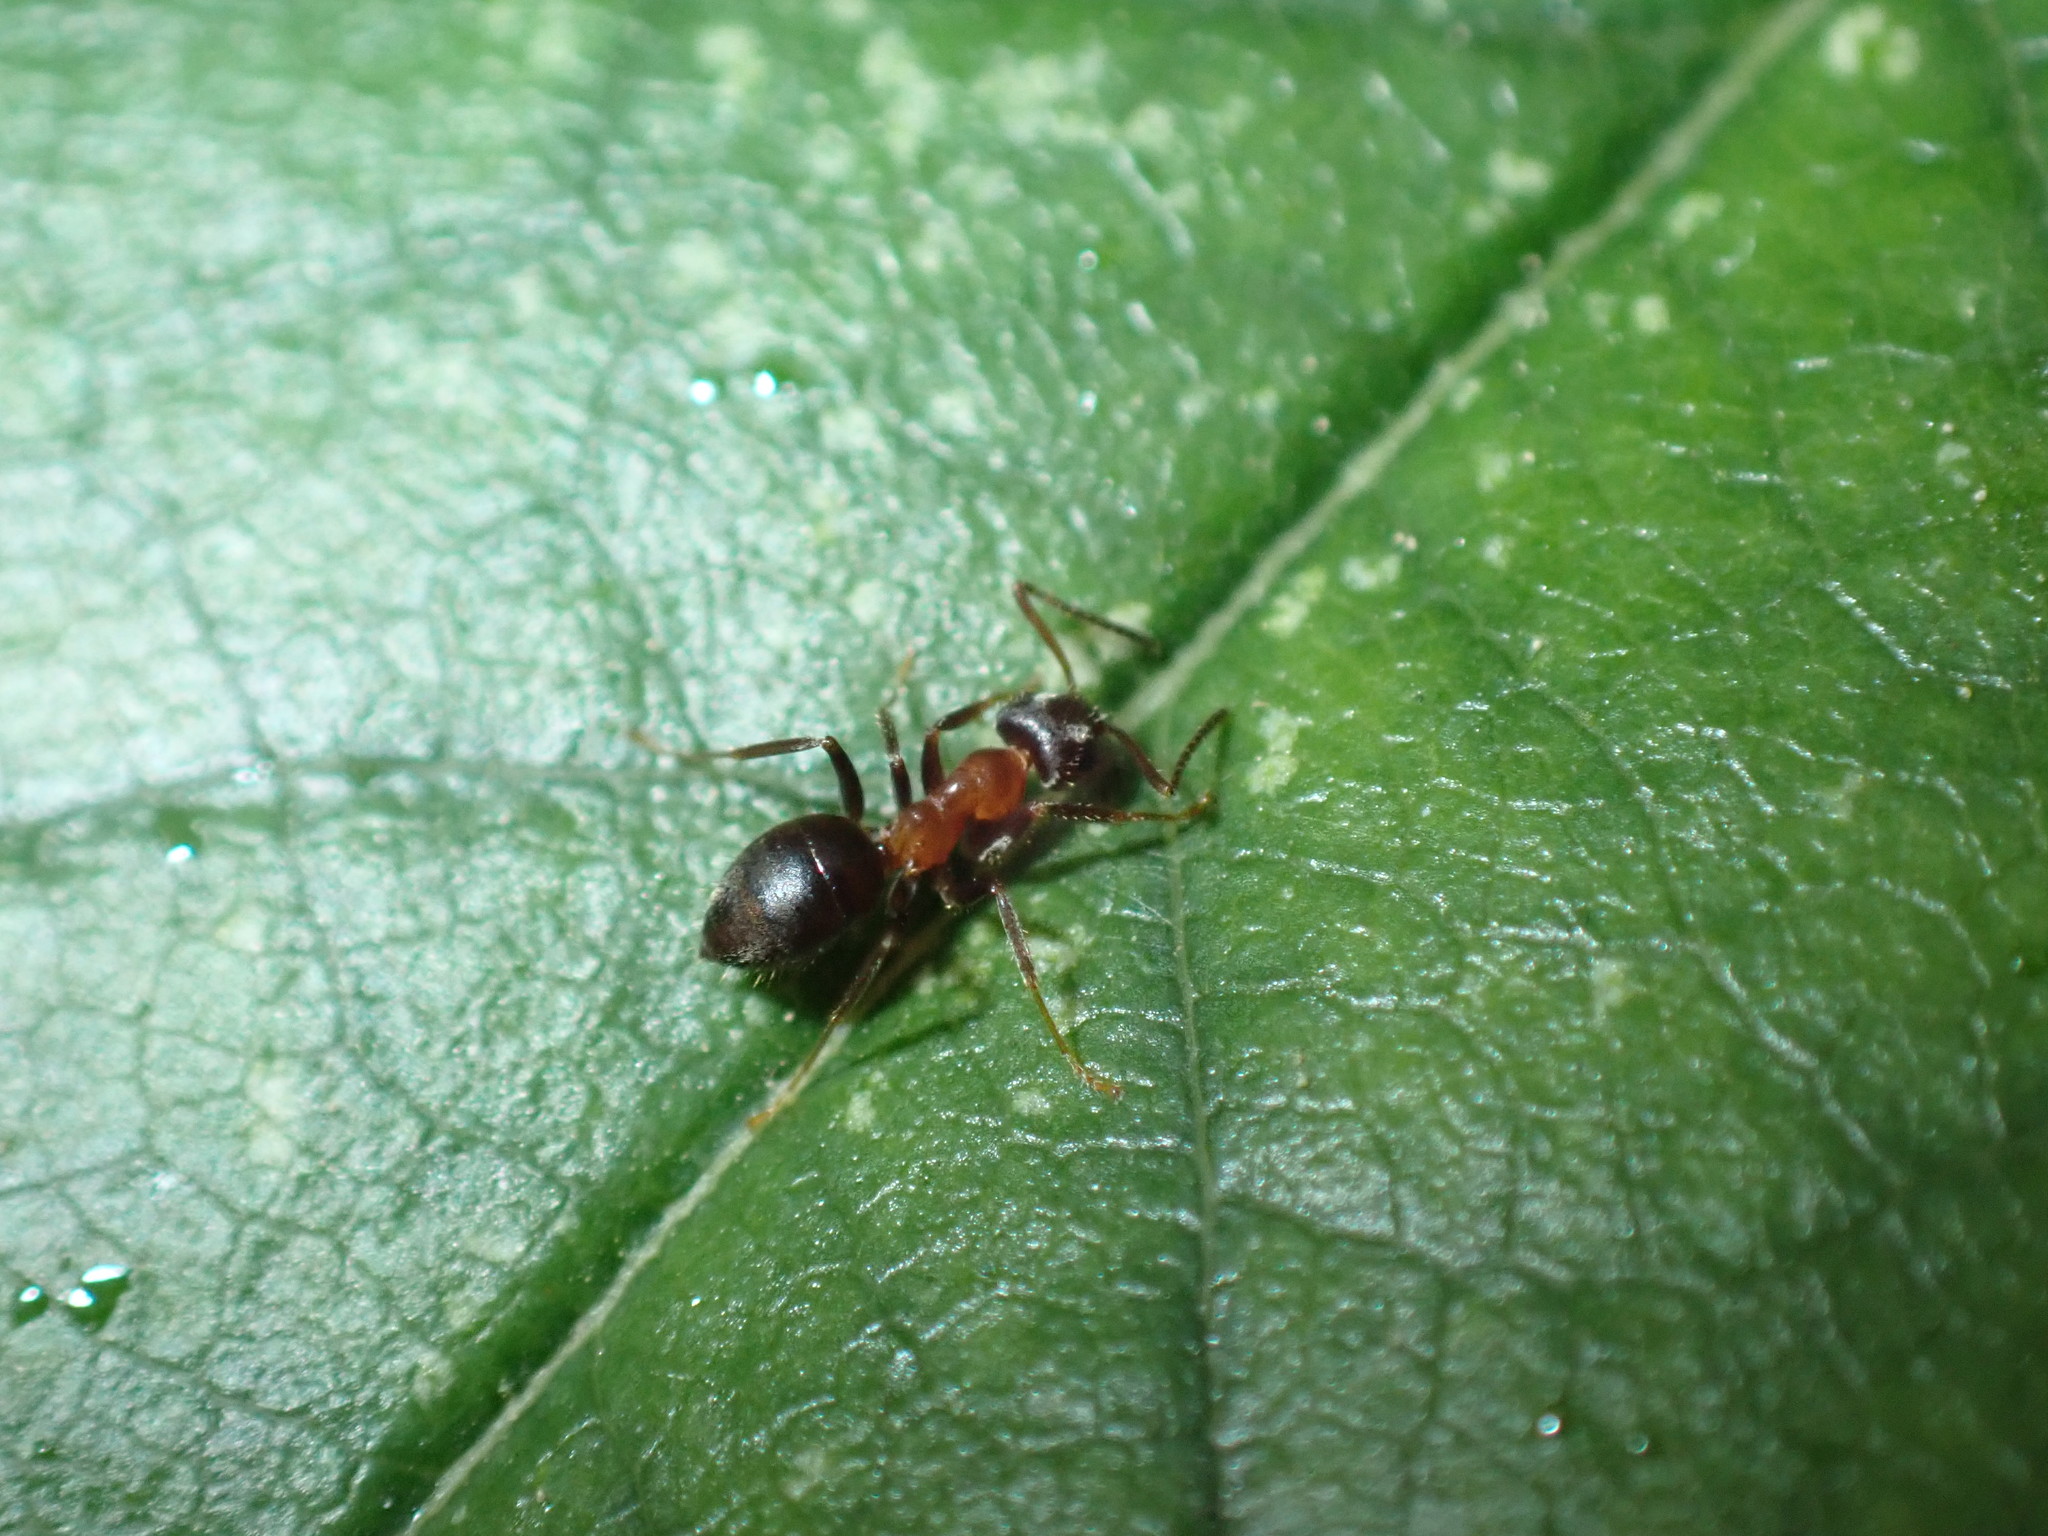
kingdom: Animalia
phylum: Arthropoda
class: Insecta
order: Hymenoptera
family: Formicidae
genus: Lasius
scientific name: Lasius emarginatus
